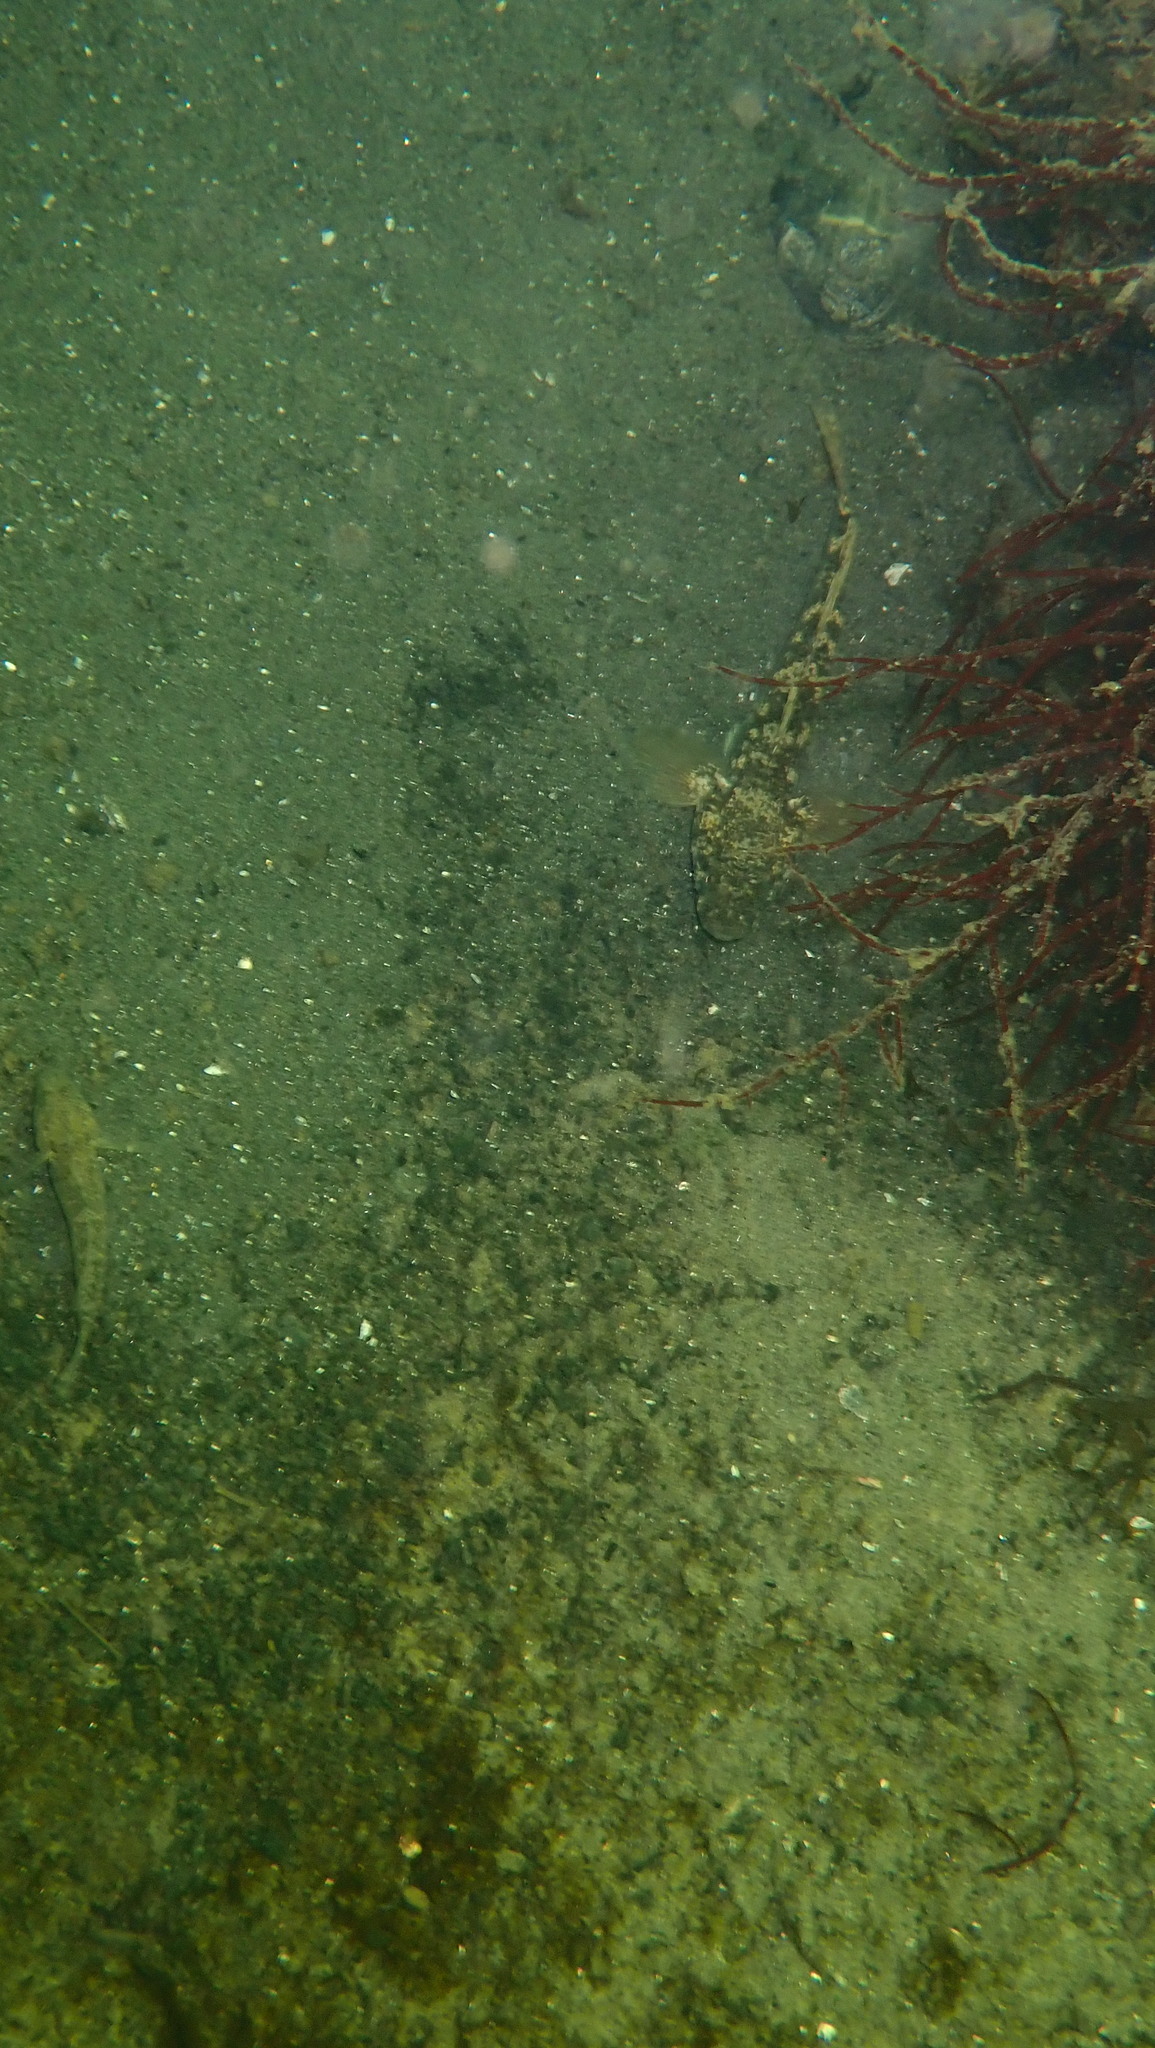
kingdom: Animalia
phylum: Chordata
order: Perciformes
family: Gobiidae
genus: Gobius
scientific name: Gobius niger
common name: Black goby
